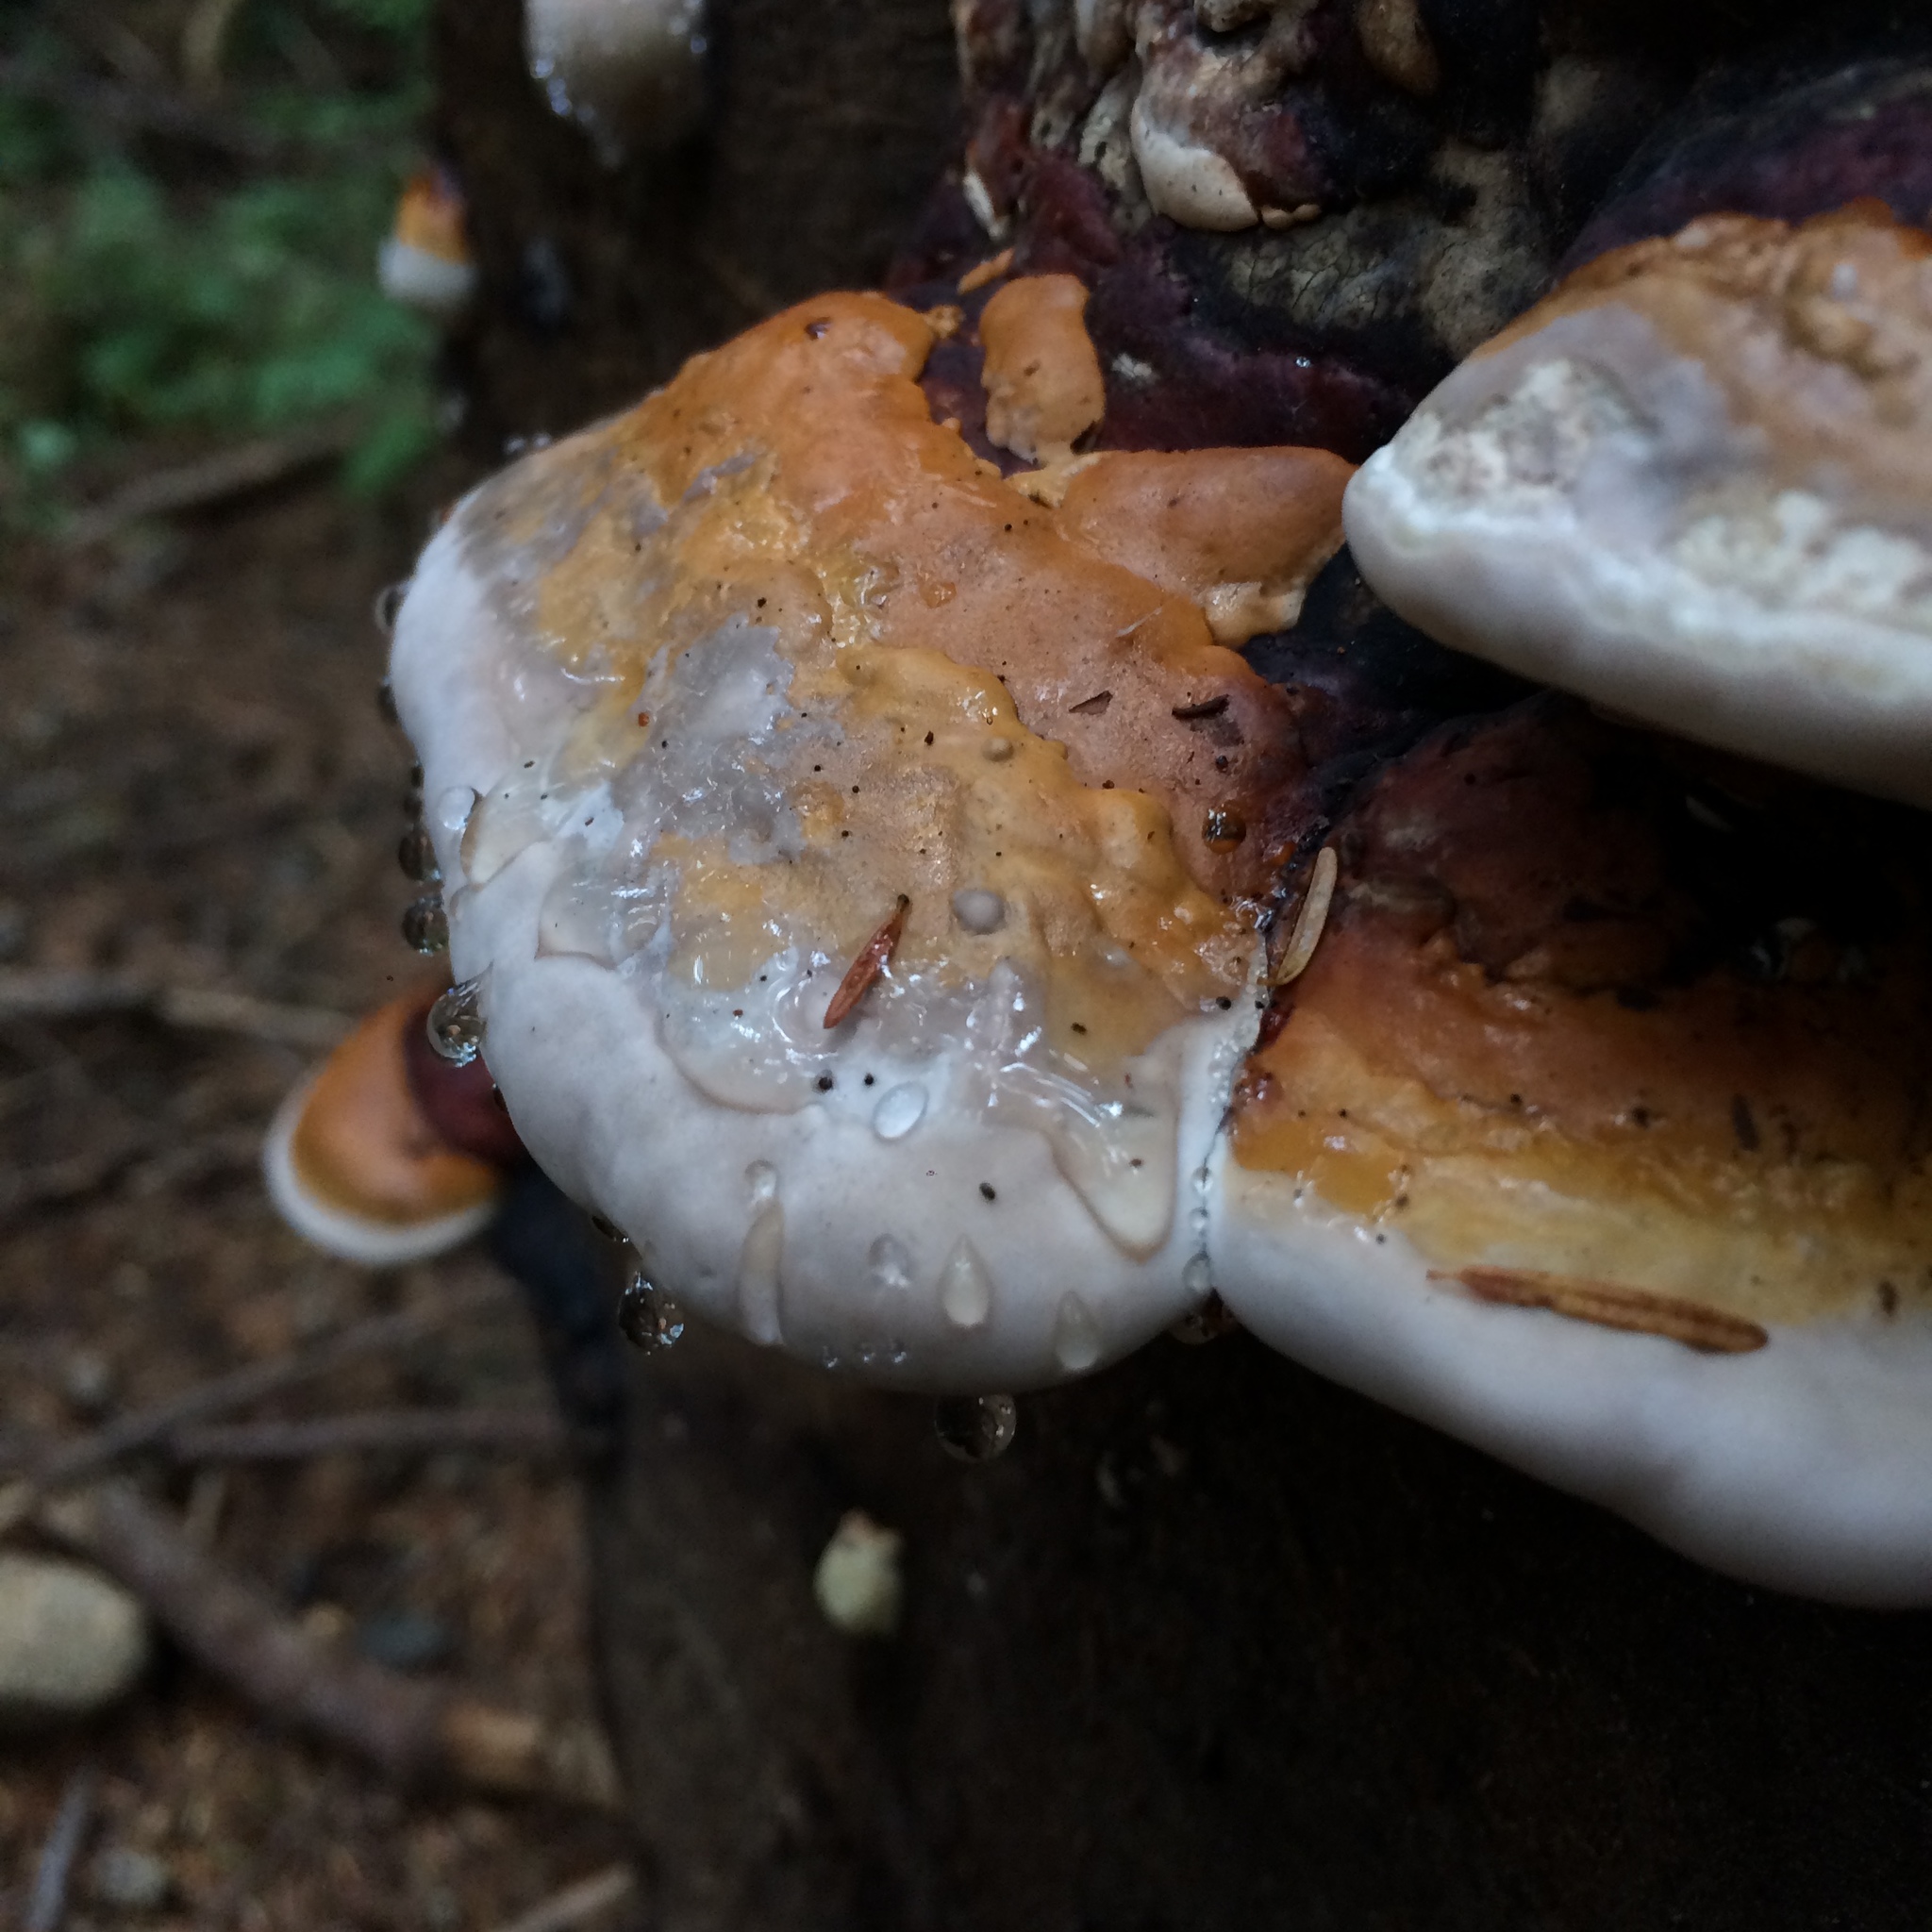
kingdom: Fungi
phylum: Basidiomycota
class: Agaricomycetes
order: Polyporales
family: Fomitopsidaceae
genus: Fomitopsis
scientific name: Fomitopsis mounceae
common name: Northern red belt
